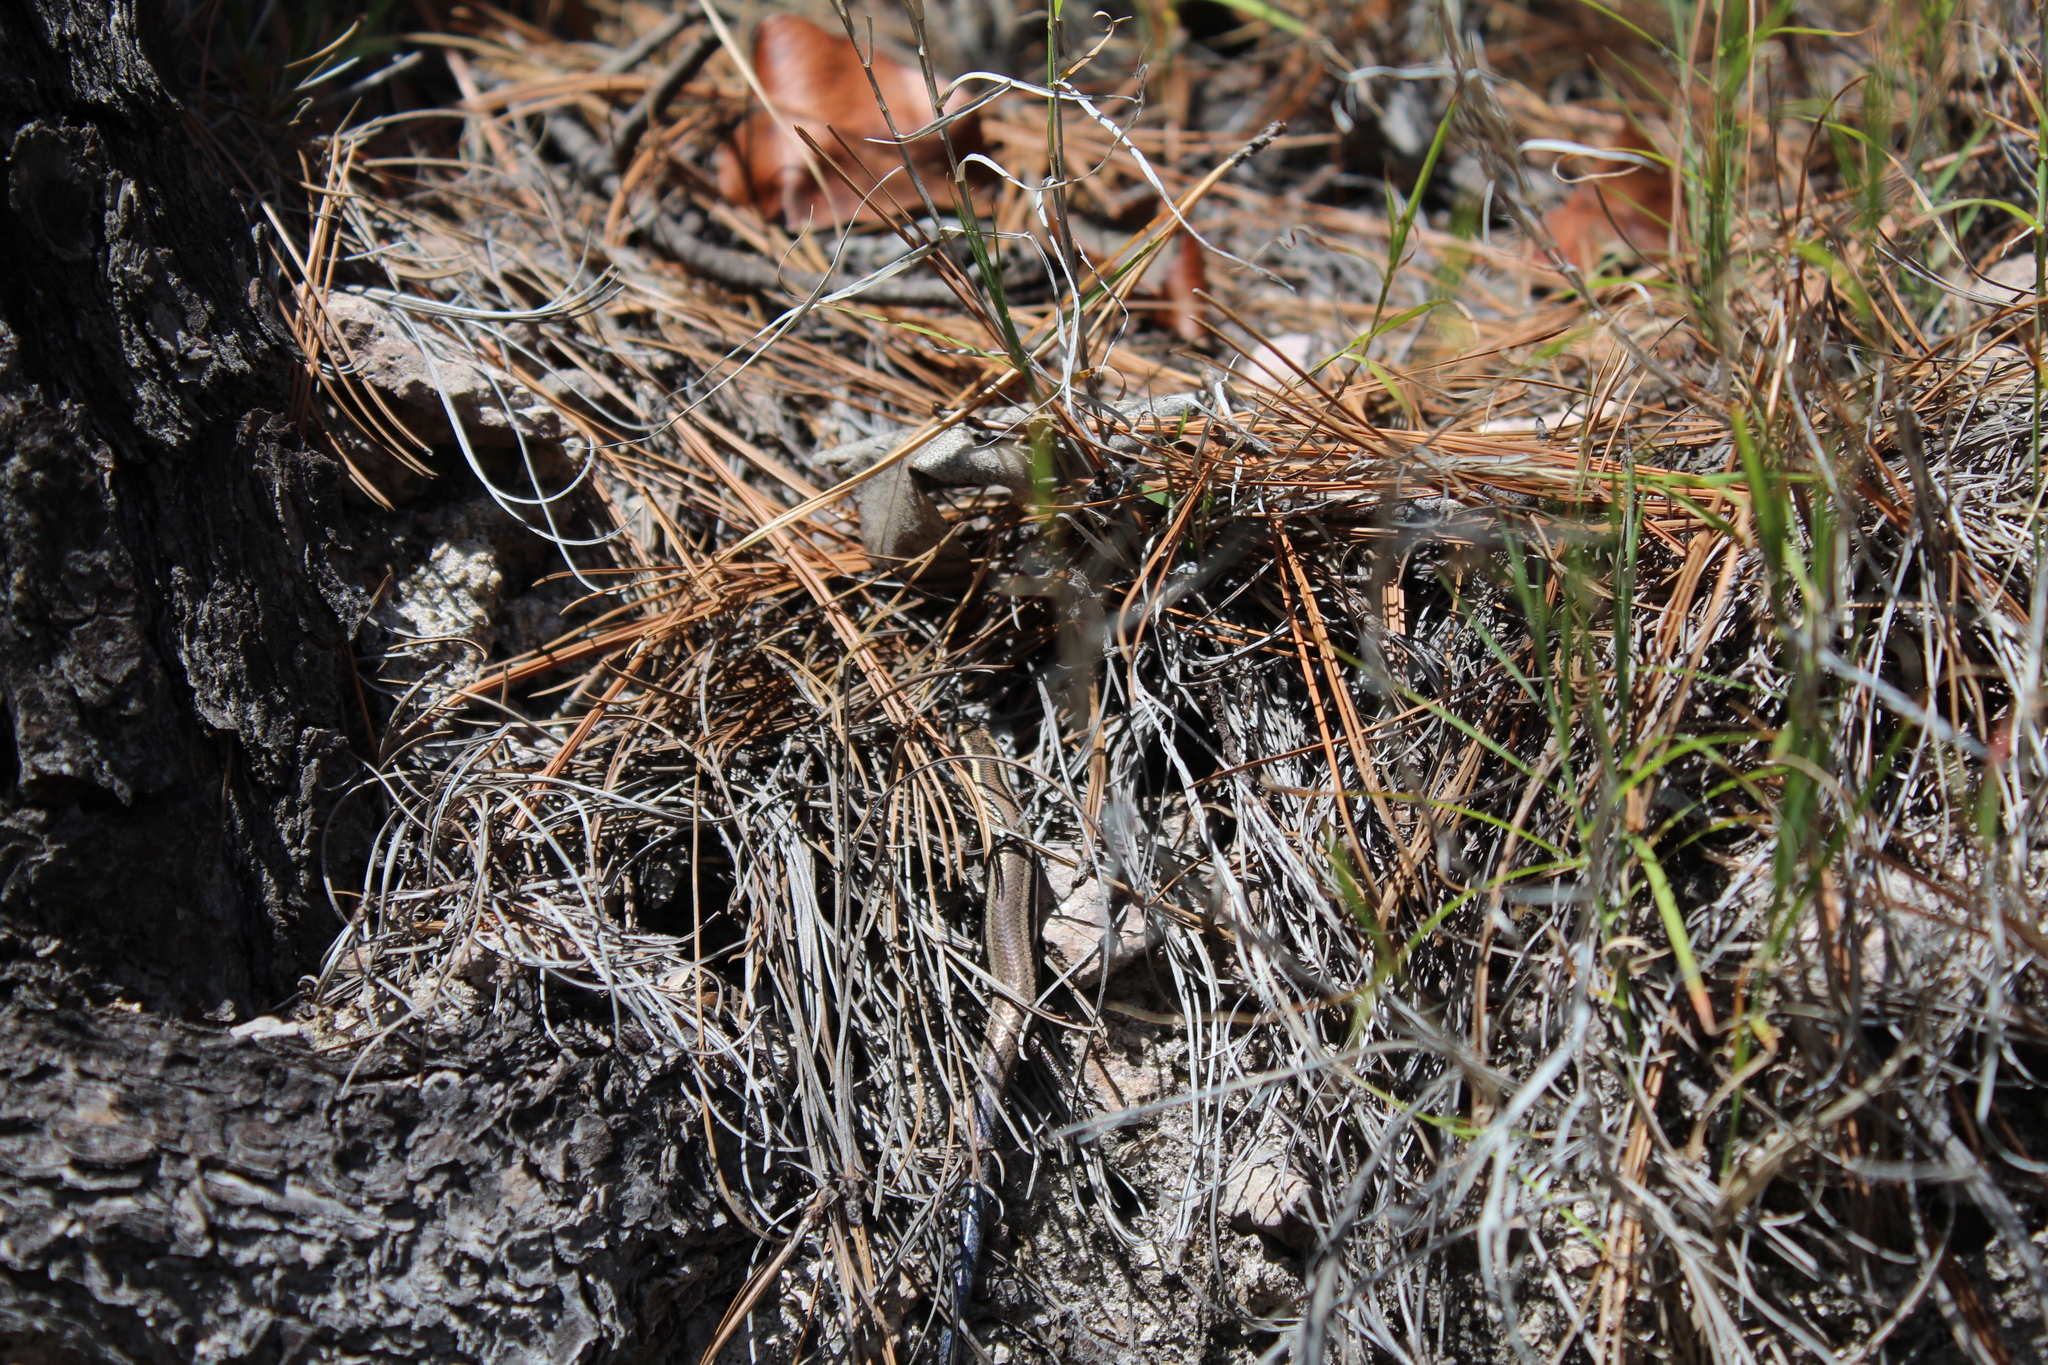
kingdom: Animalia
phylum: Chordata
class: Squamata
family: Scincidae
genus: Plestiodon
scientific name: Plestiodon bilineatus
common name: Two-lined short-nosed skink
